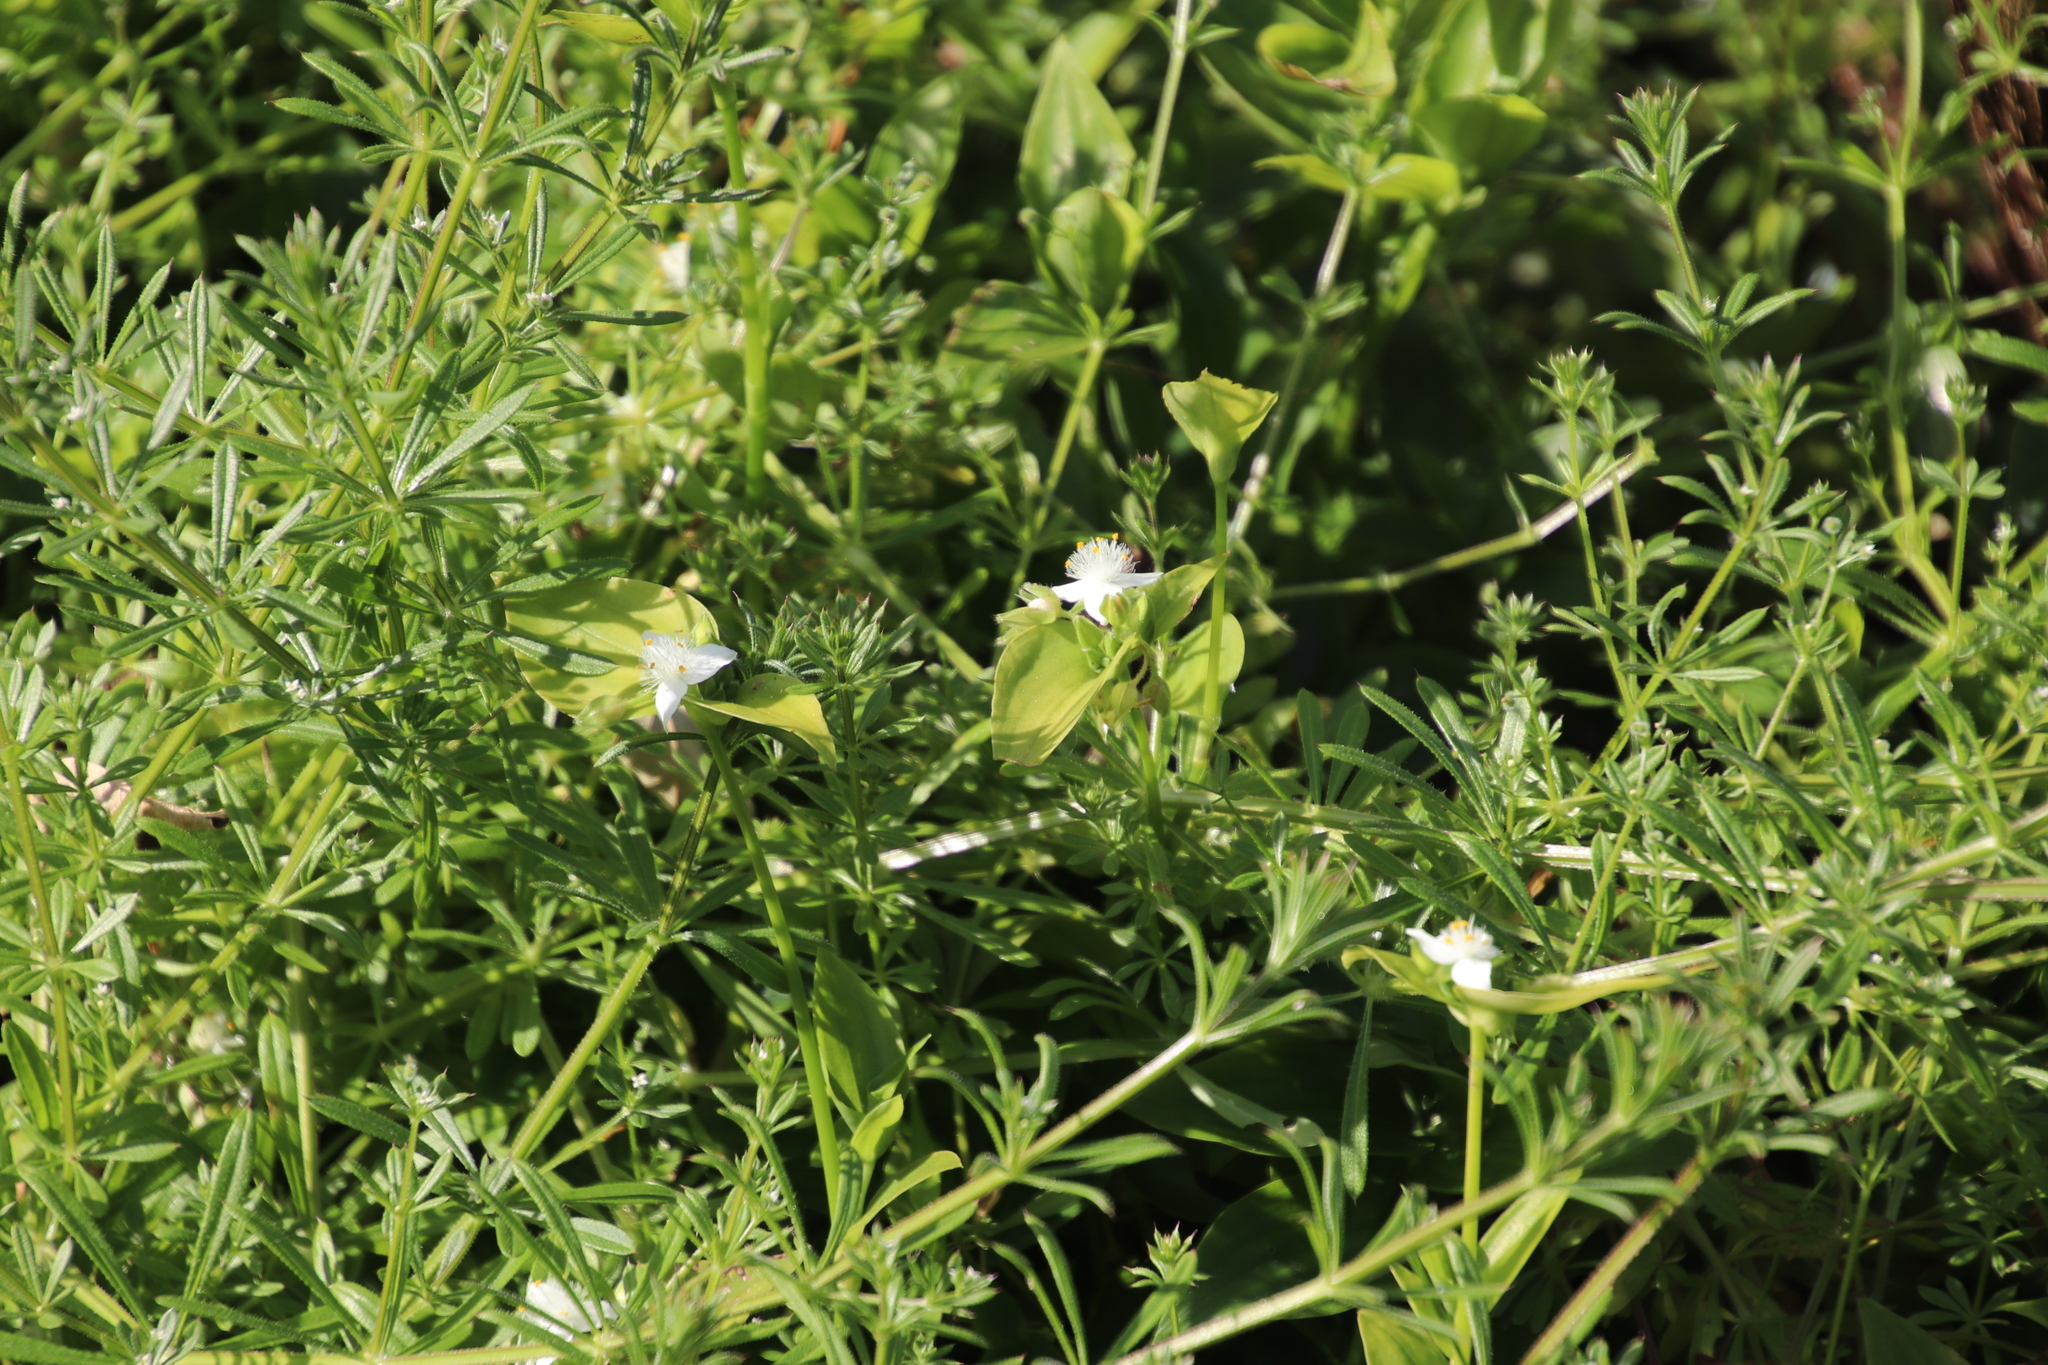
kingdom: Plantae
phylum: Tracheophyta
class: Liliopsida
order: Commelinales
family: Commelinaceae
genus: Tradescantia
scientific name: Tradescantia fluminensis
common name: Wandering-jew
